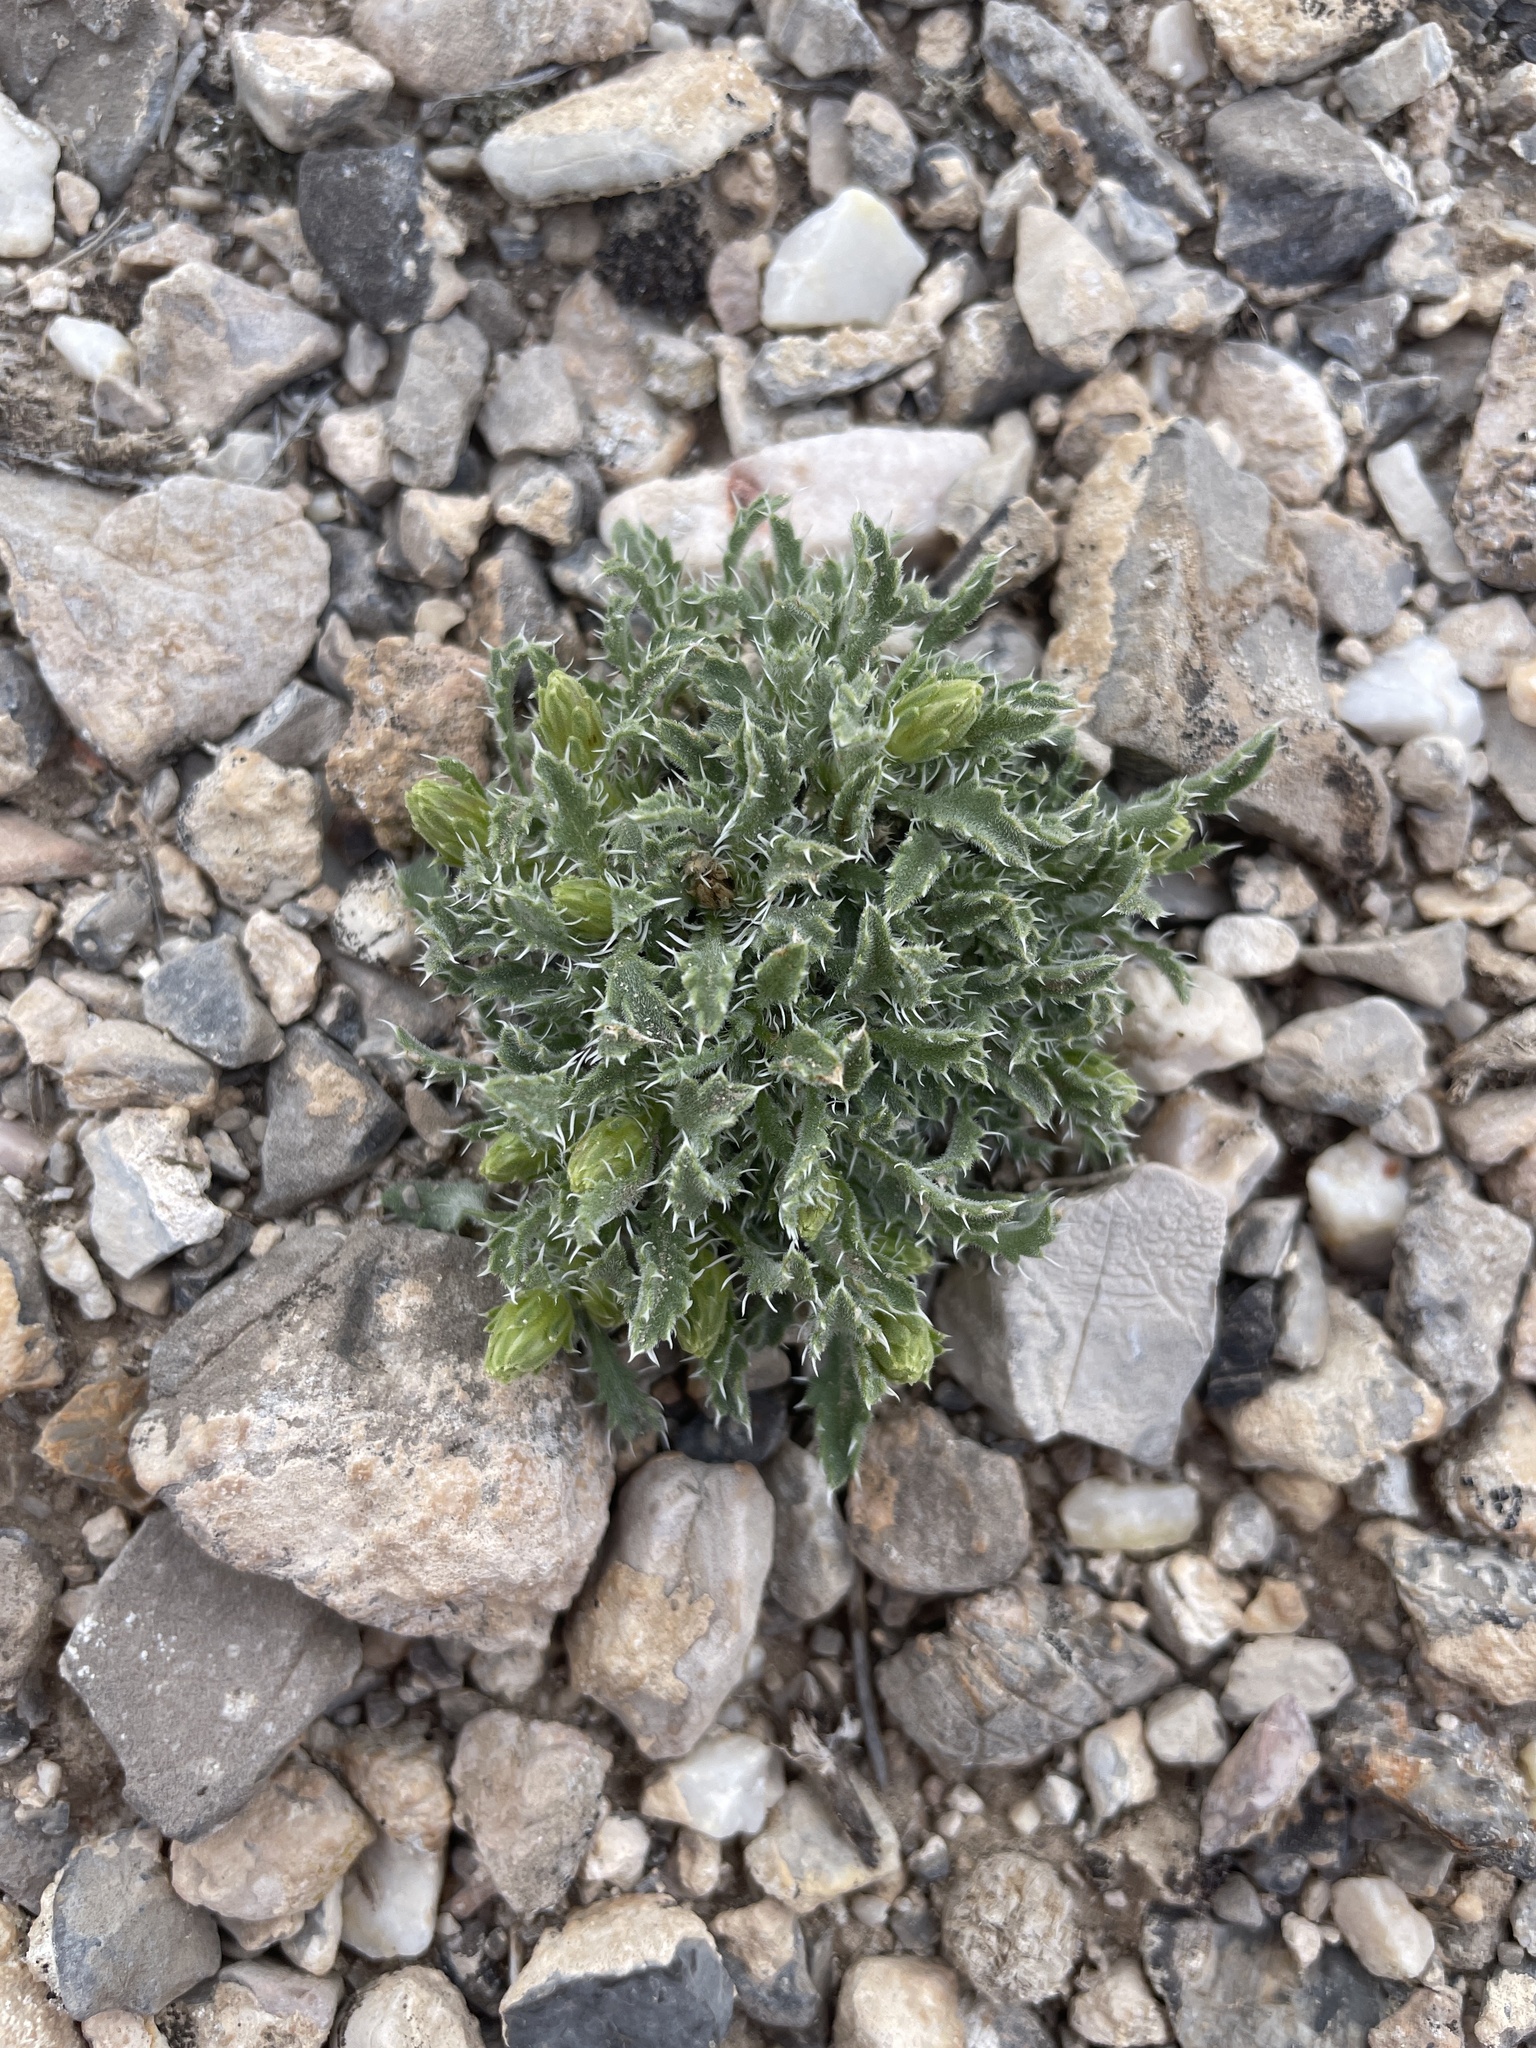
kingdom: Plantae
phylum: Tracheophyta
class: Magnoliopsida
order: Asterales
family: Asteraceae
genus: Xanthisma
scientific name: Xanthisma grindelioides
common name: Goldenweed
